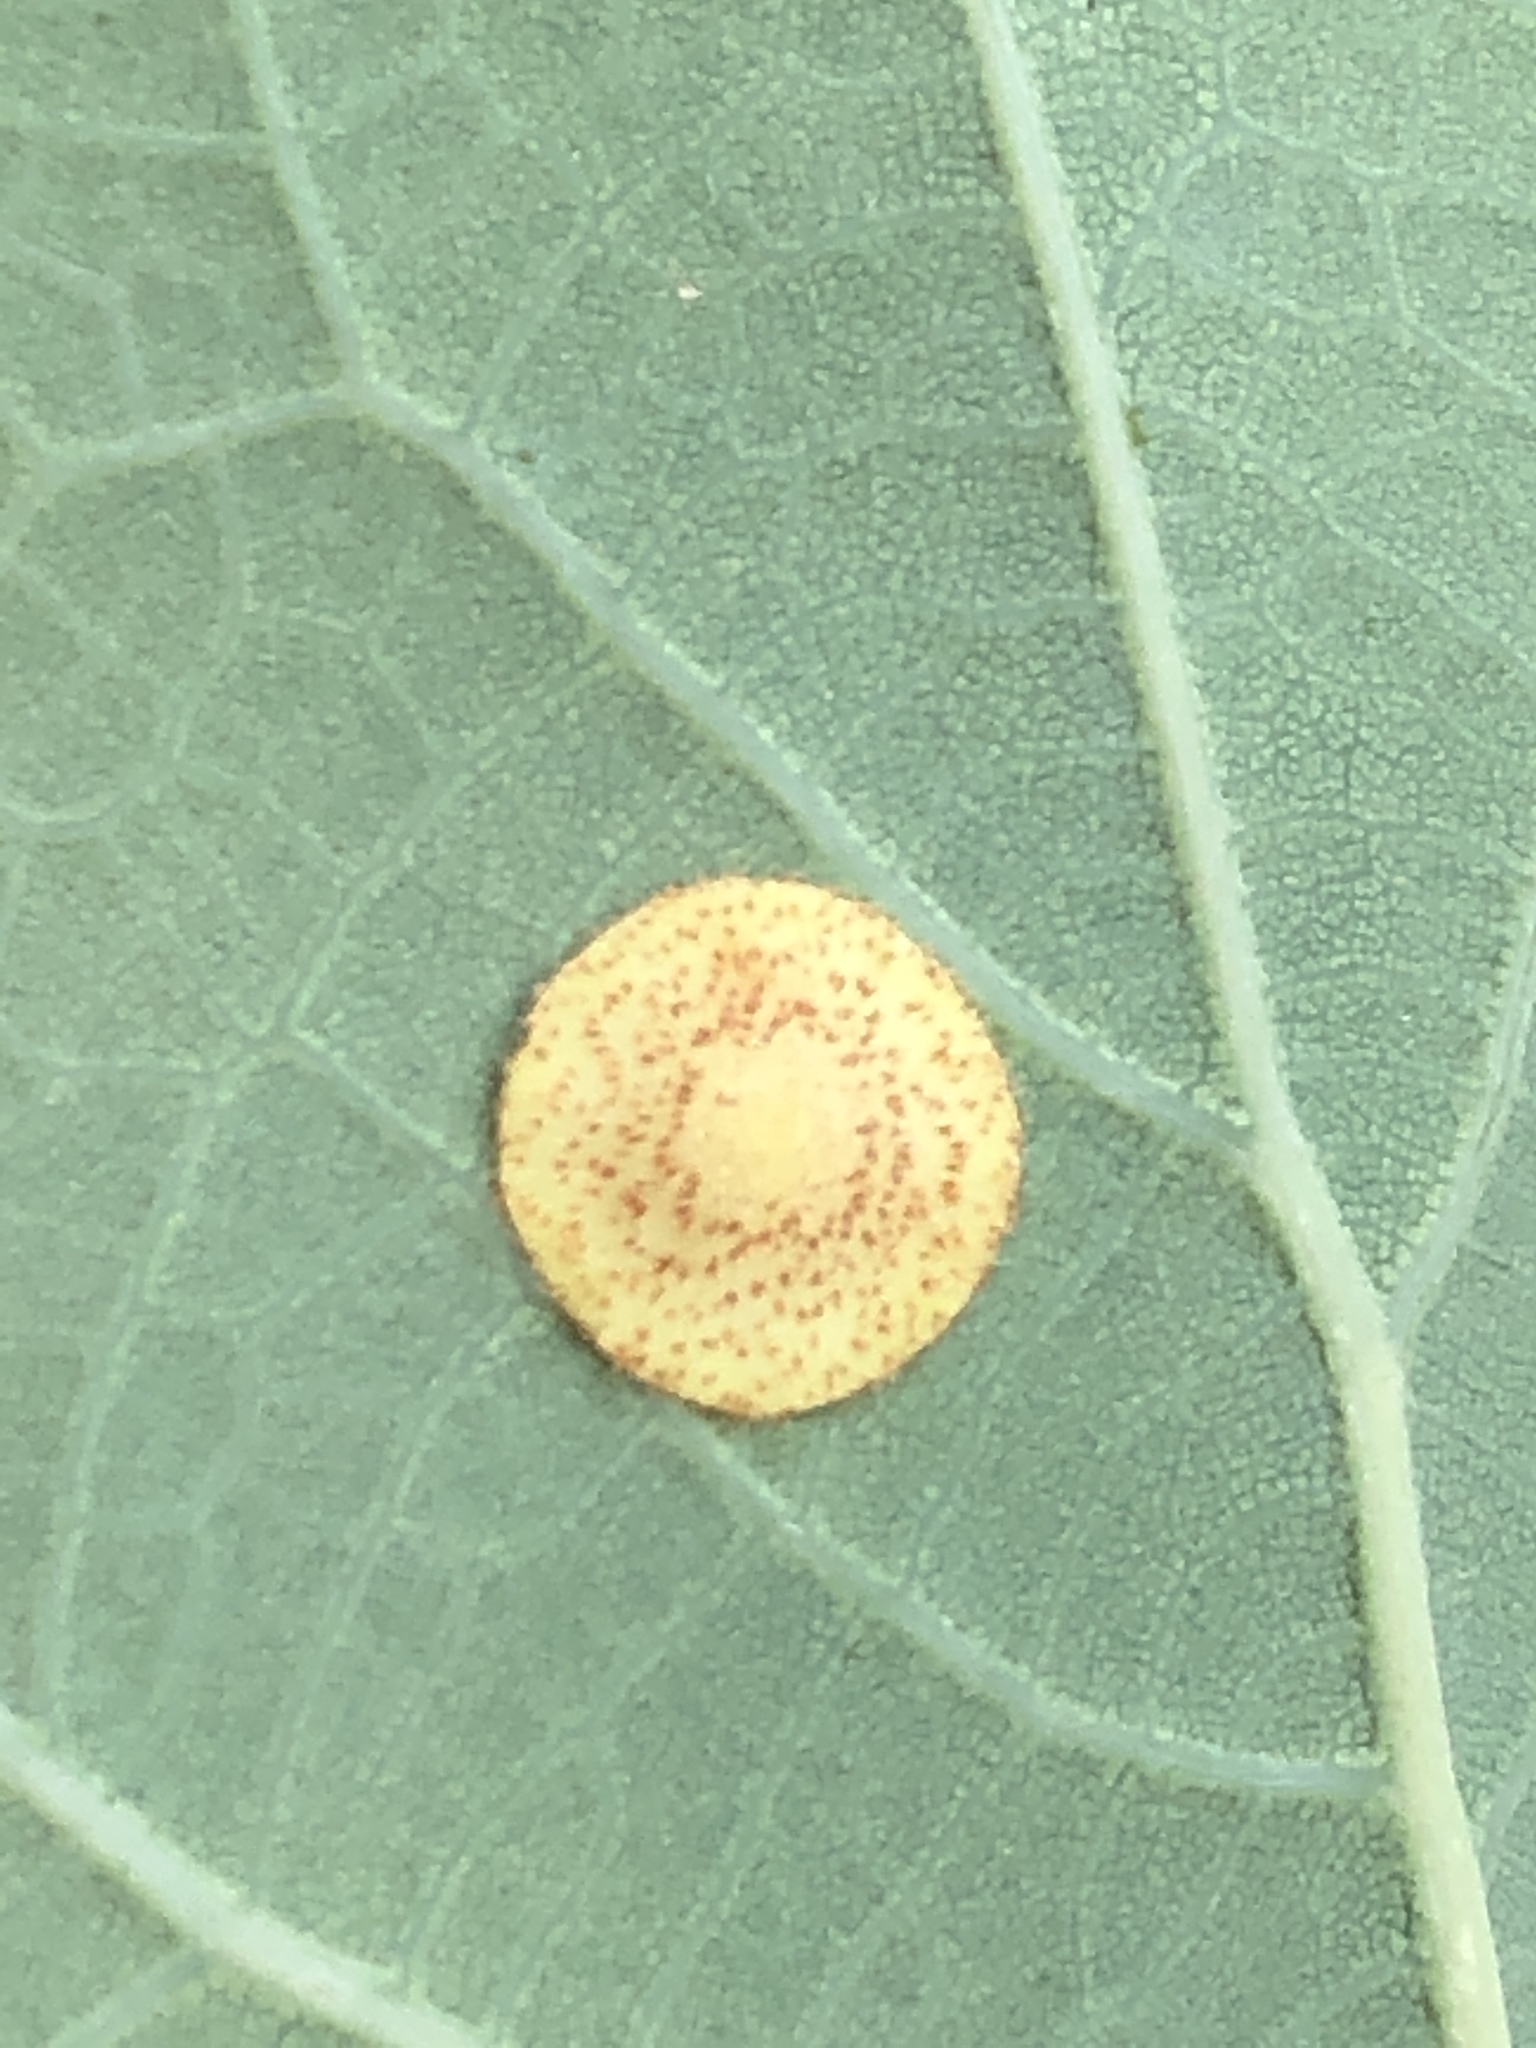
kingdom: Animalia
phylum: Arthropoda
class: Insecta
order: Hymenoptera
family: Cynipidae
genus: Neuroterus
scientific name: Neuroterus quercusbaccarum
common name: Common spangle gall
